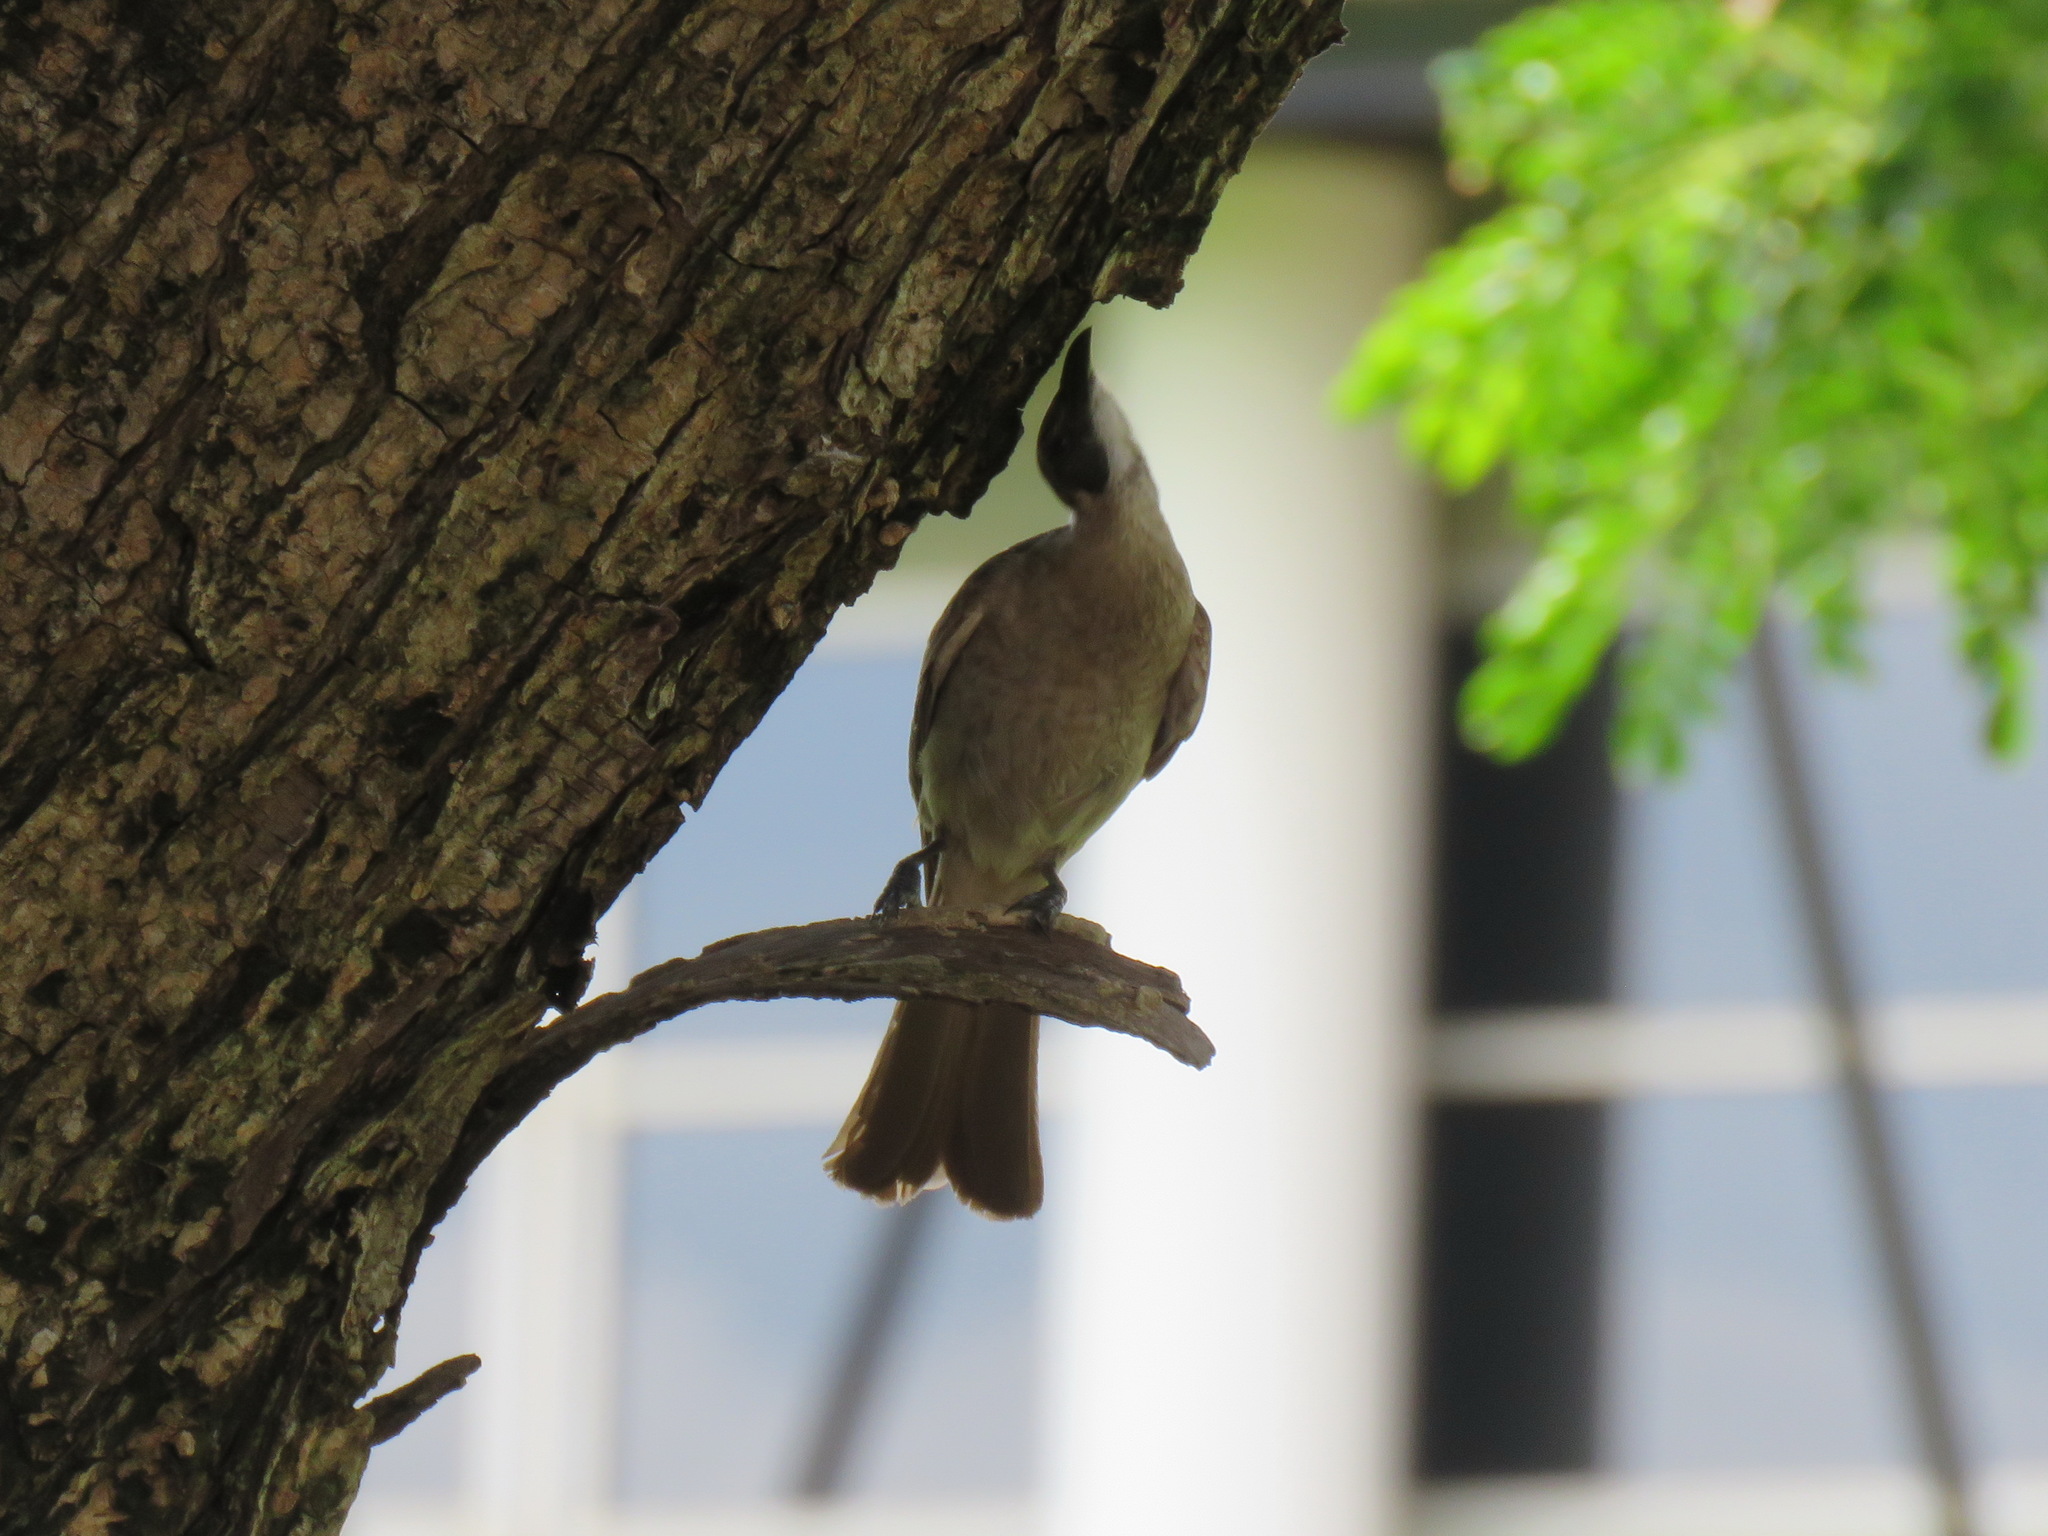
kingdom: Animalia
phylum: Chordata
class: Aves
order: Passeriformes
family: Meliphagidae
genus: Philemon
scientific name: Philemon citreogularis
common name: Little friarbird
